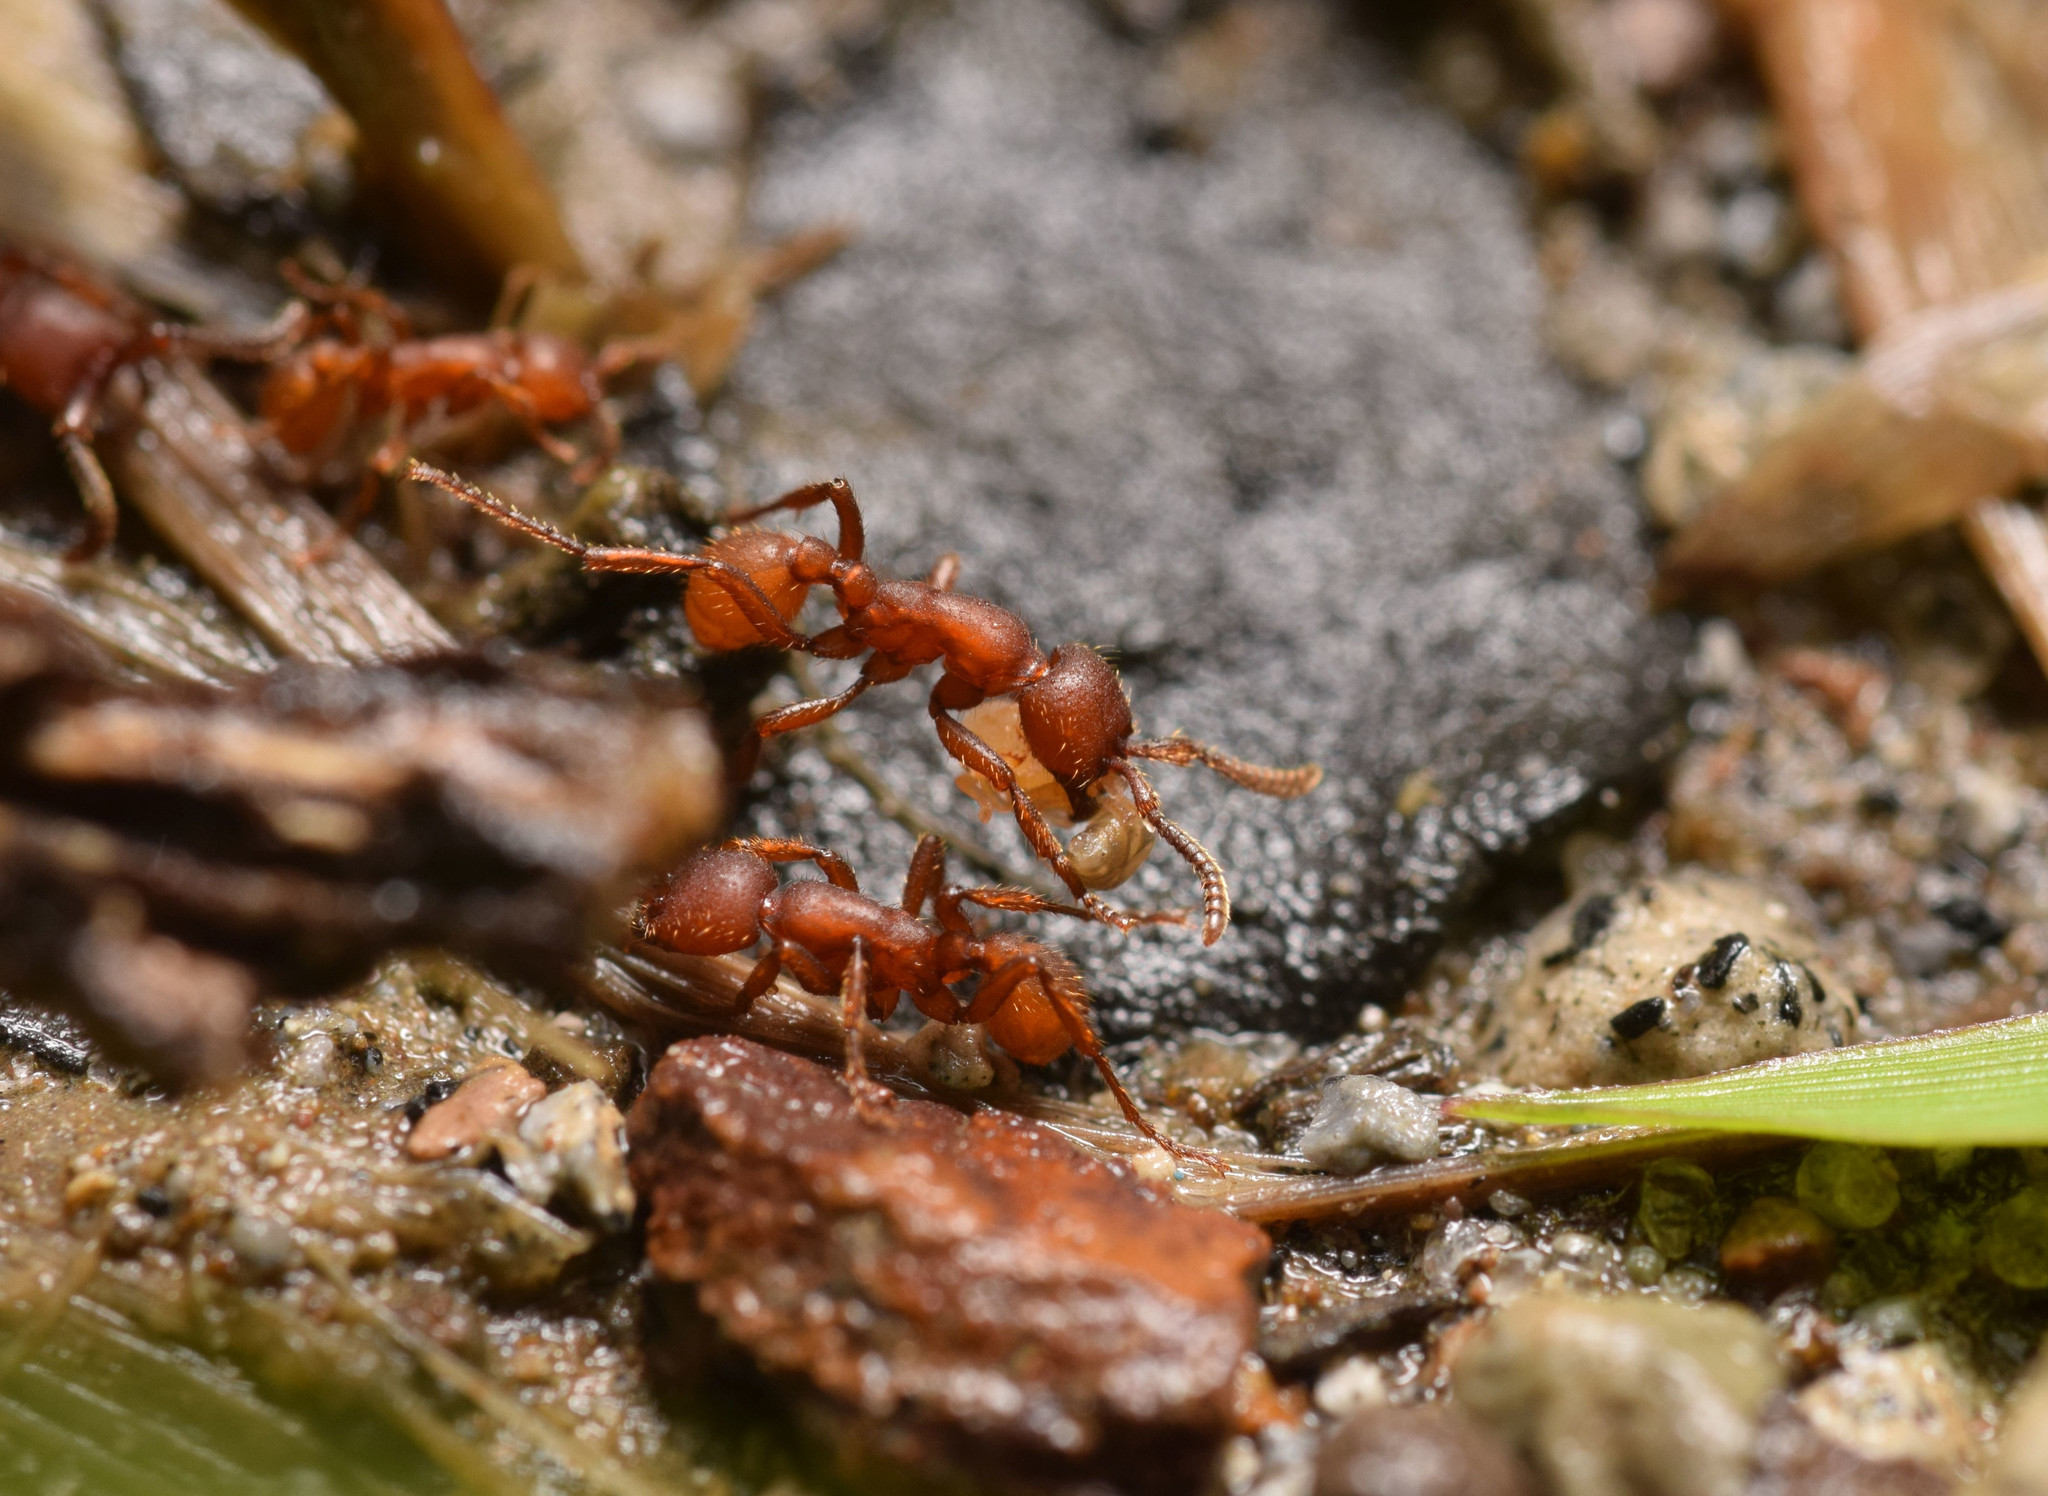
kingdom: Animalia
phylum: Arthropoda
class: Insecta
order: Hymenoptera
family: Formicidae
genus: Nomamyrmex
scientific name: Nomamyrmex hartigii
